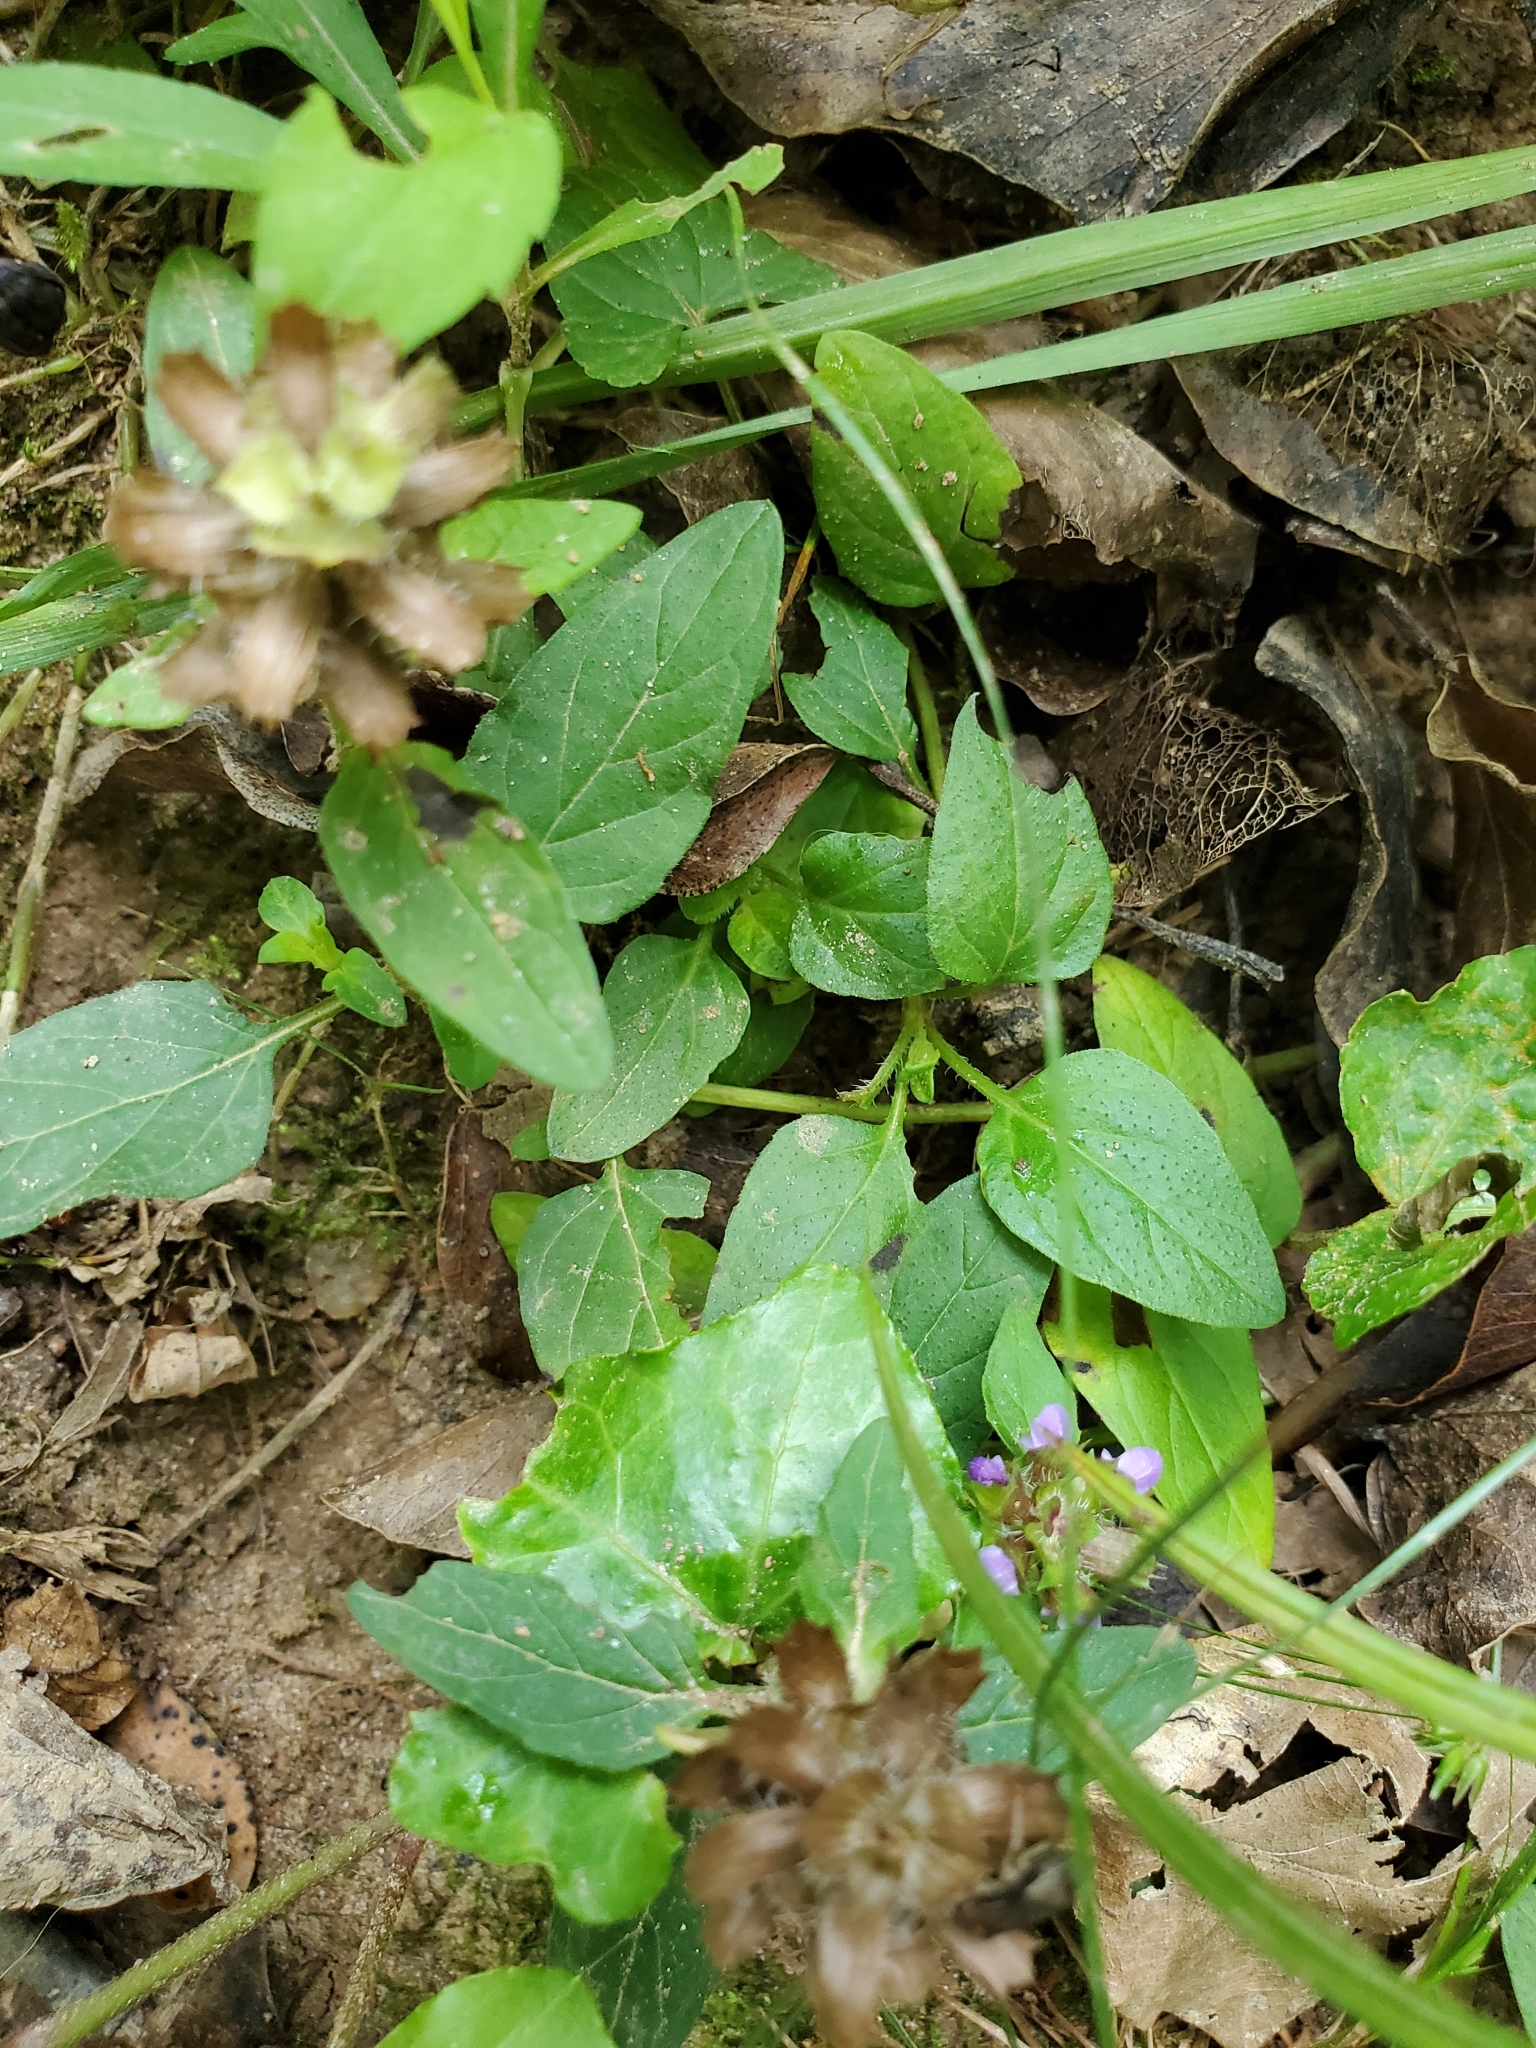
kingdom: Plantae
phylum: Tracheophyta
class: Magnoliopsida
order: Lamiales
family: Lamiaceae
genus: Prunella
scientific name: Prunella vulgaris
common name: Heal-all
